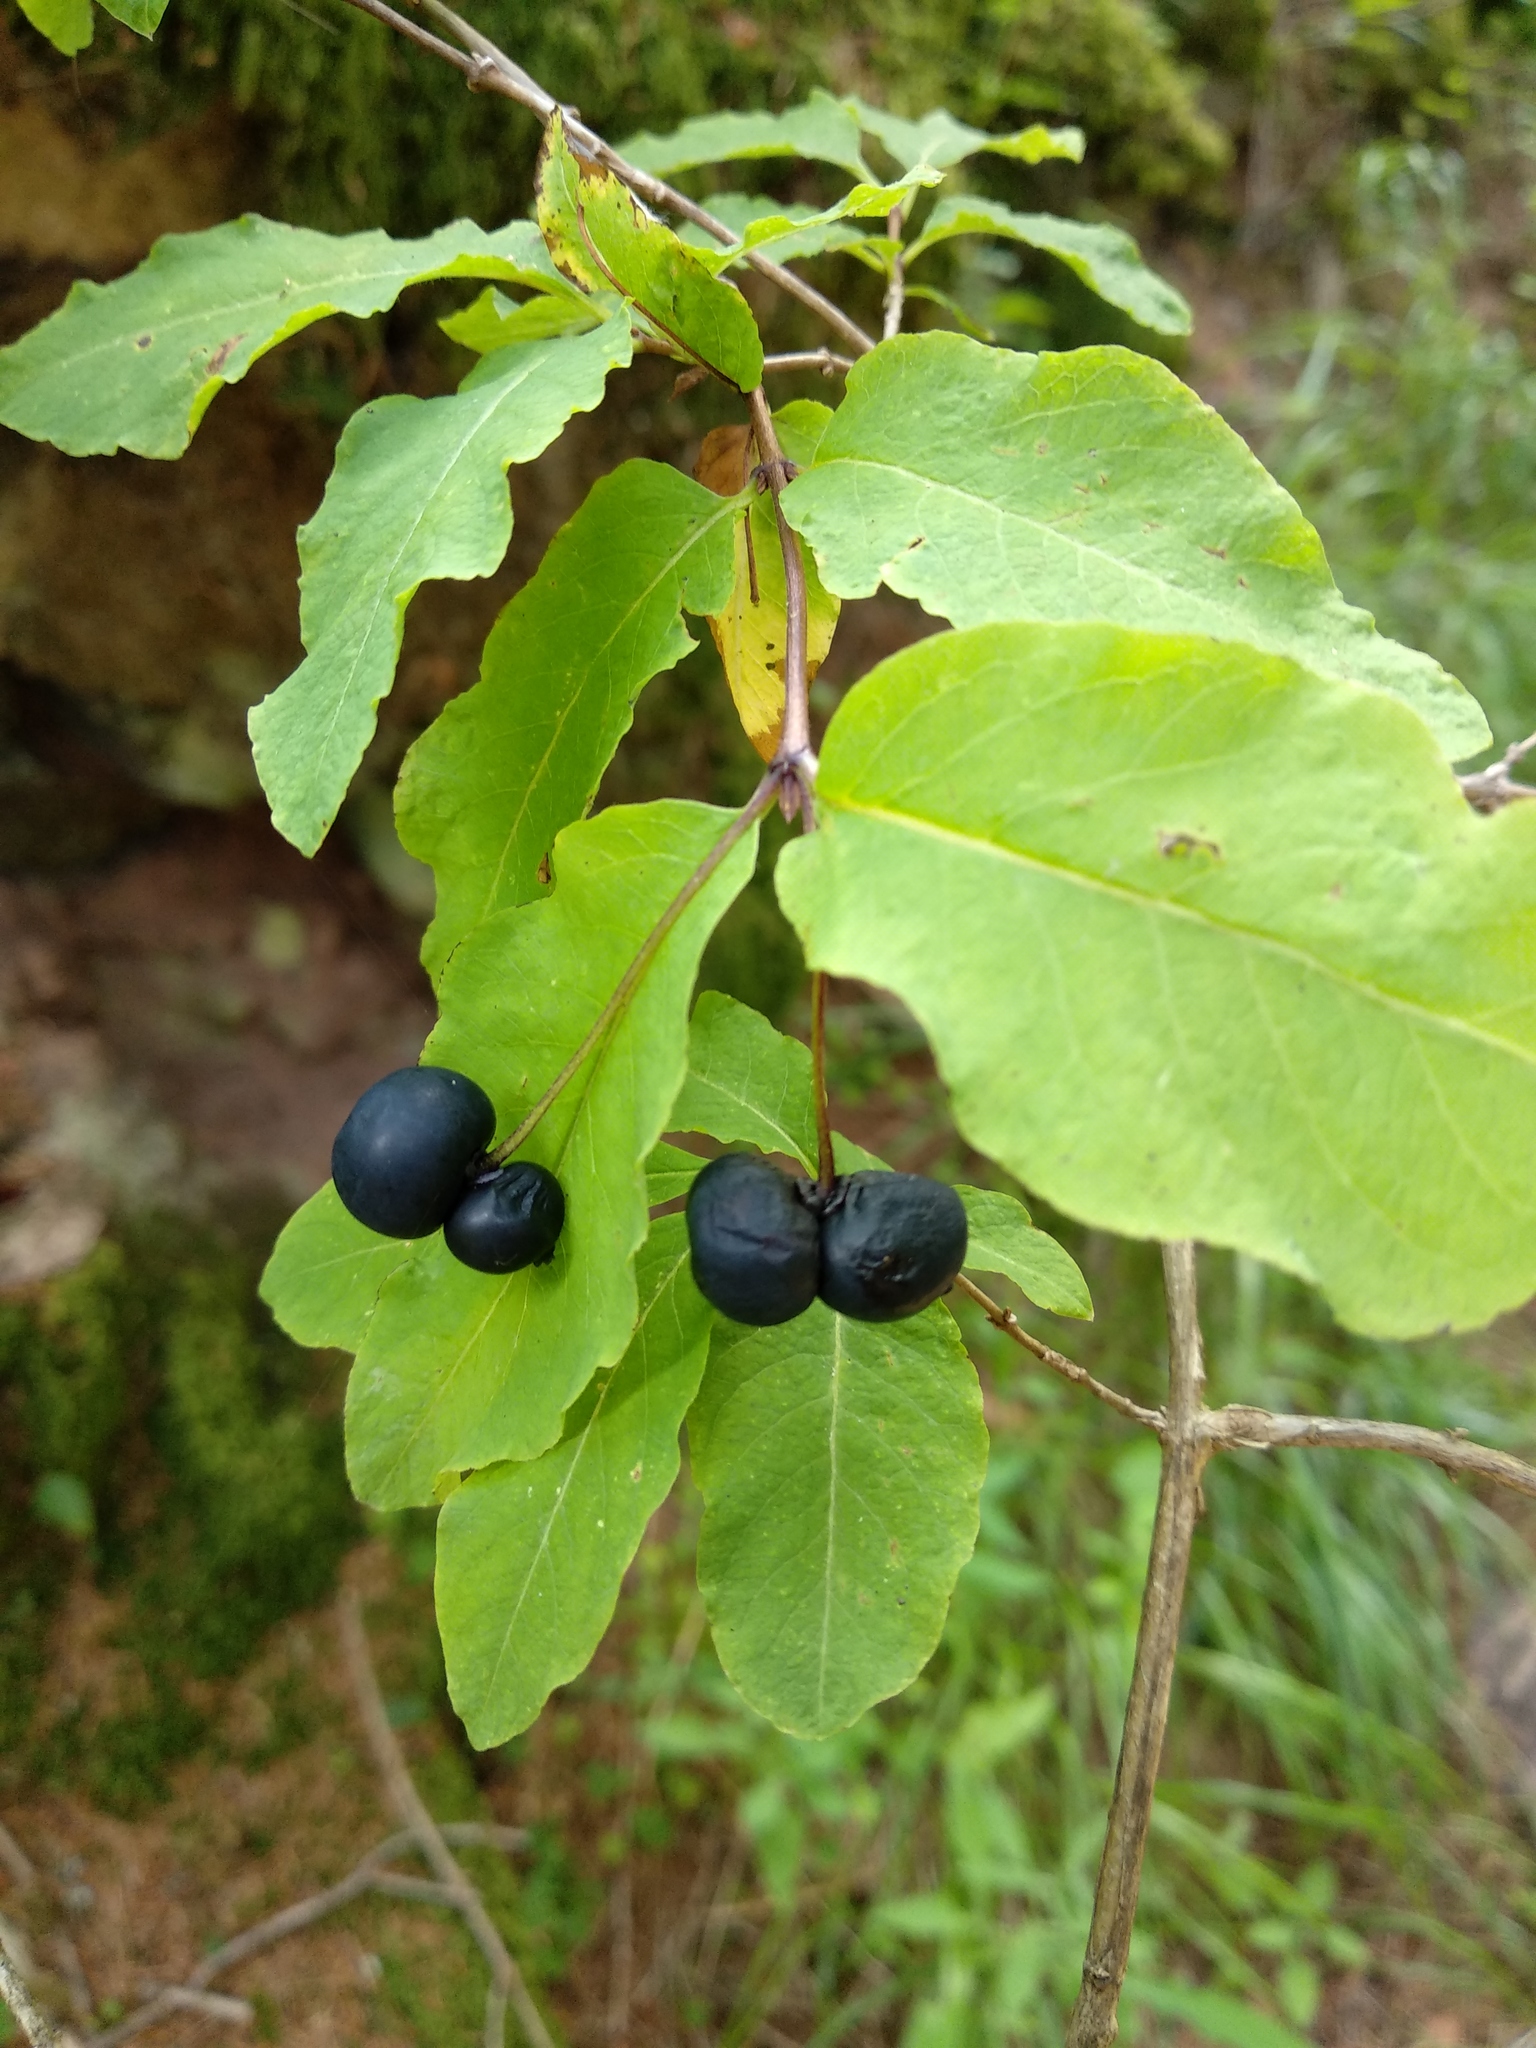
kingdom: Plantae
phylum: Tracheophyta
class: Magnoliopsida
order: Dipsacales
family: Caprifoliaceae
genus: Lonicera
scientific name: Lonicera nigra
